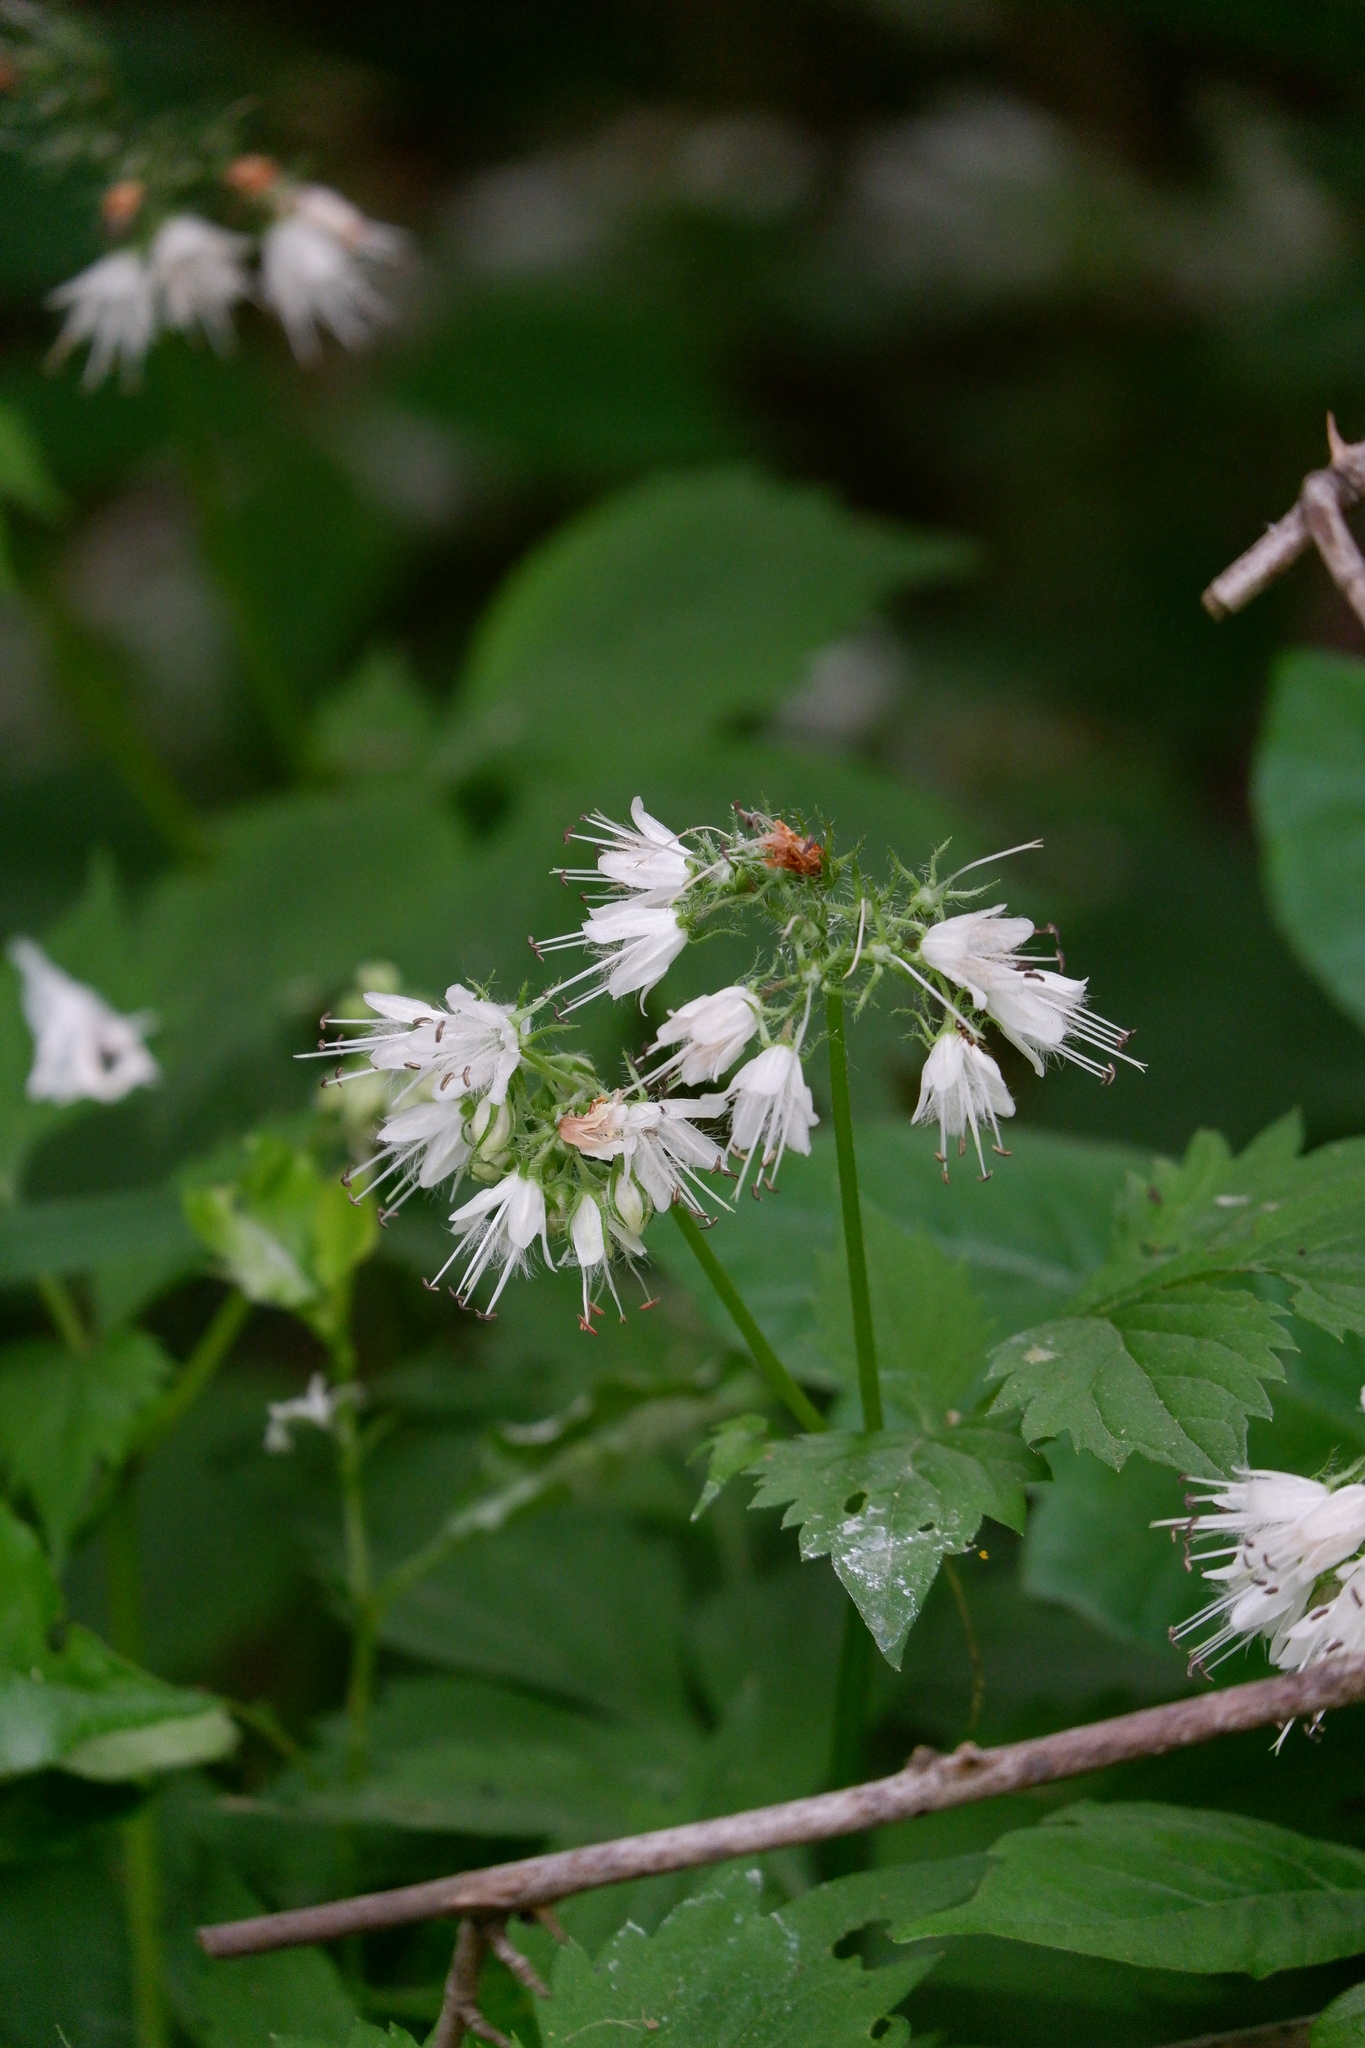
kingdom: Plantae
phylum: Tracheophyta
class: Magnoliopsida
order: Boraginales
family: Hydrophyllaceae
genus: Hydrophyllum
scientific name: Hydrophyllum virginianum
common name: Virginia waterleaf
